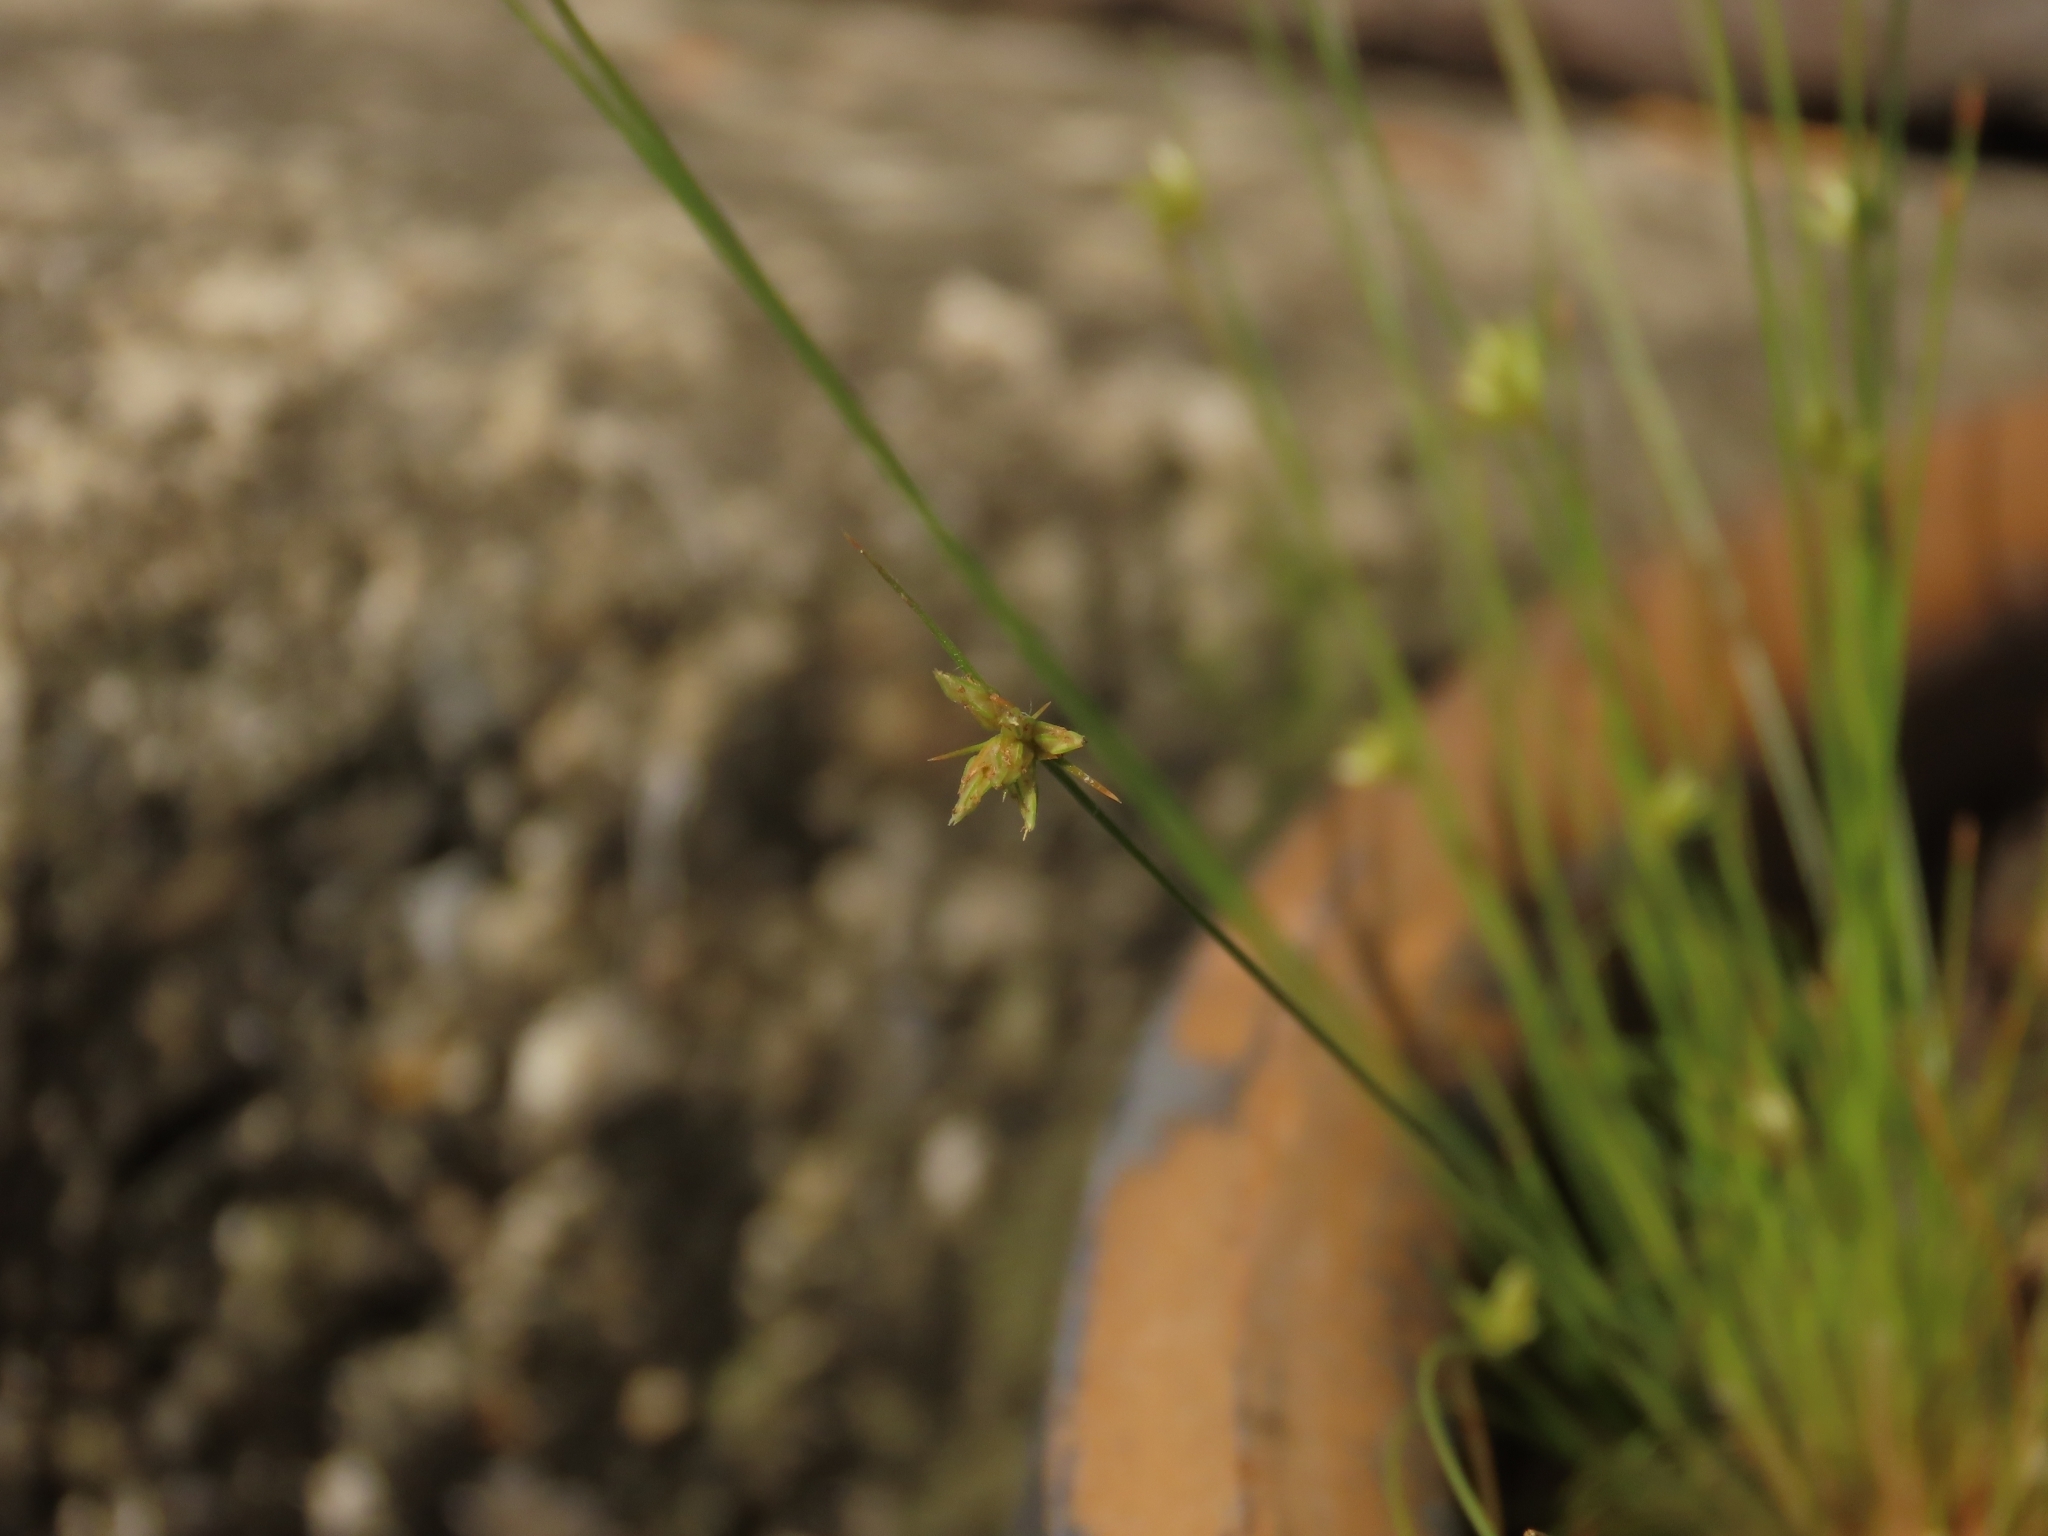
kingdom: Plantae
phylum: Tracheophyta
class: Liliopsida
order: Poales
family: Cyperaceae
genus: Bulbostylis
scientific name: Bulbostylis barbata
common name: Watergrass
